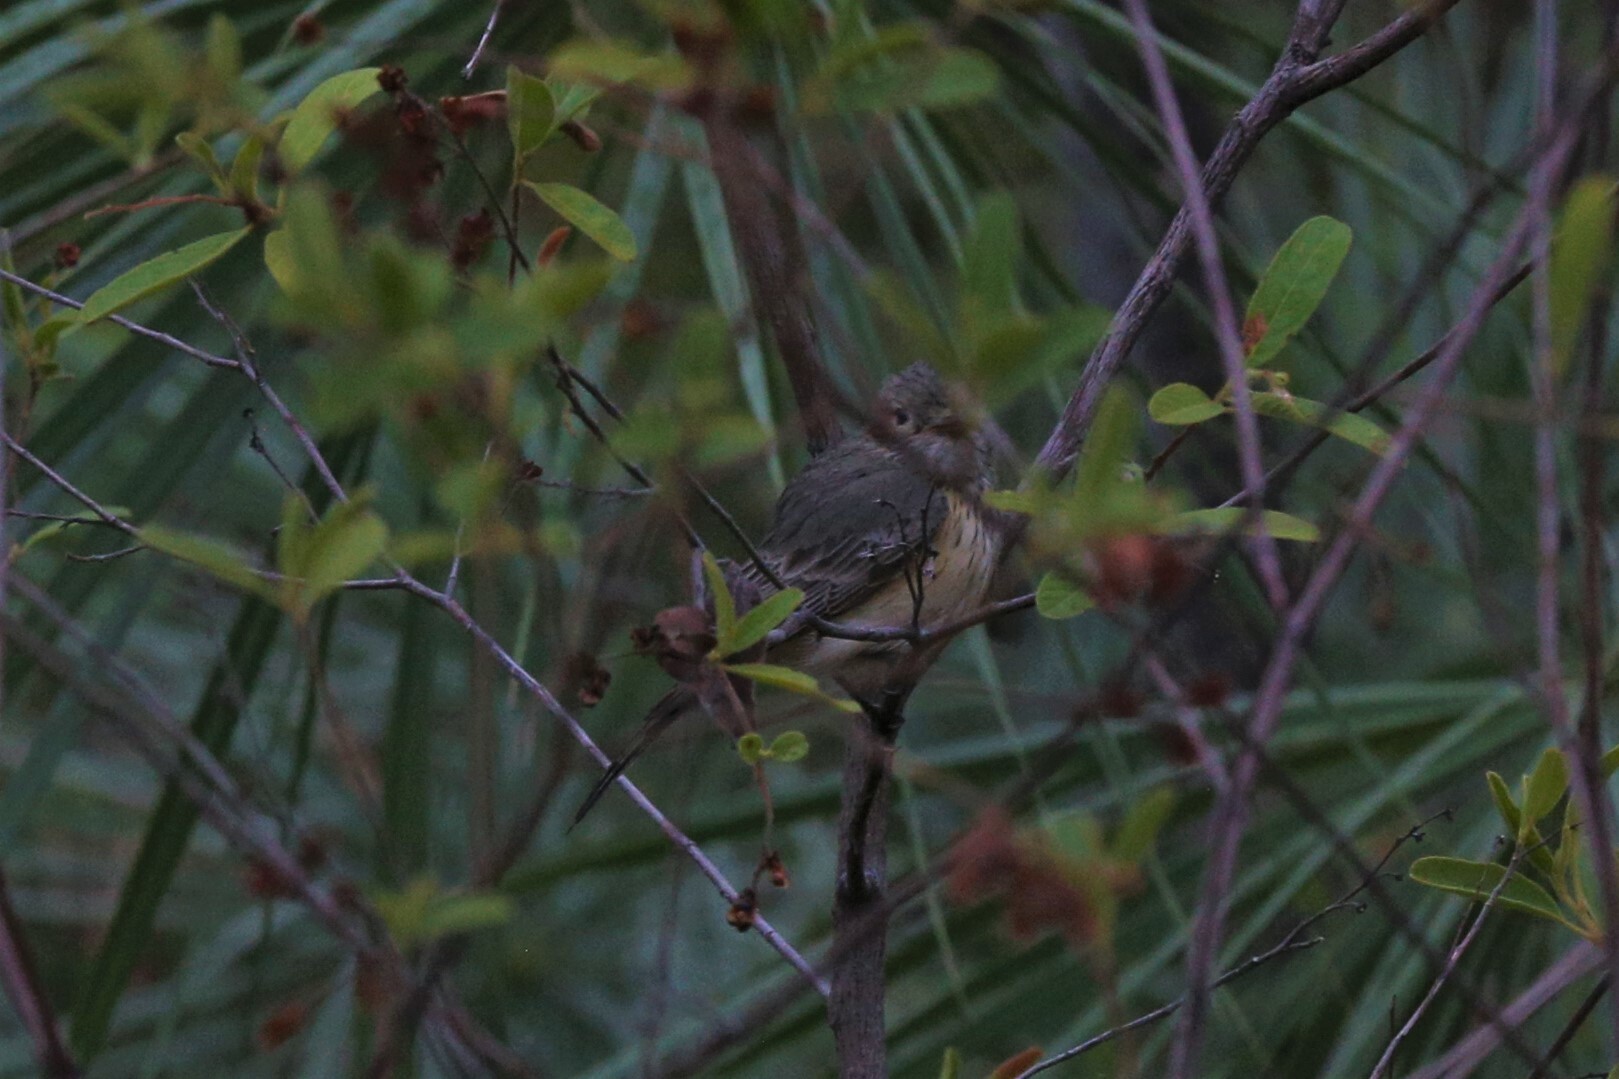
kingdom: Animalia
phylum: Chordata
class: Aves
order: Passeriformes
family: Pachycephalidae
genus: Pachycephala
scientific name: Pachycephala rufiventris
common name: Rufous whistler
